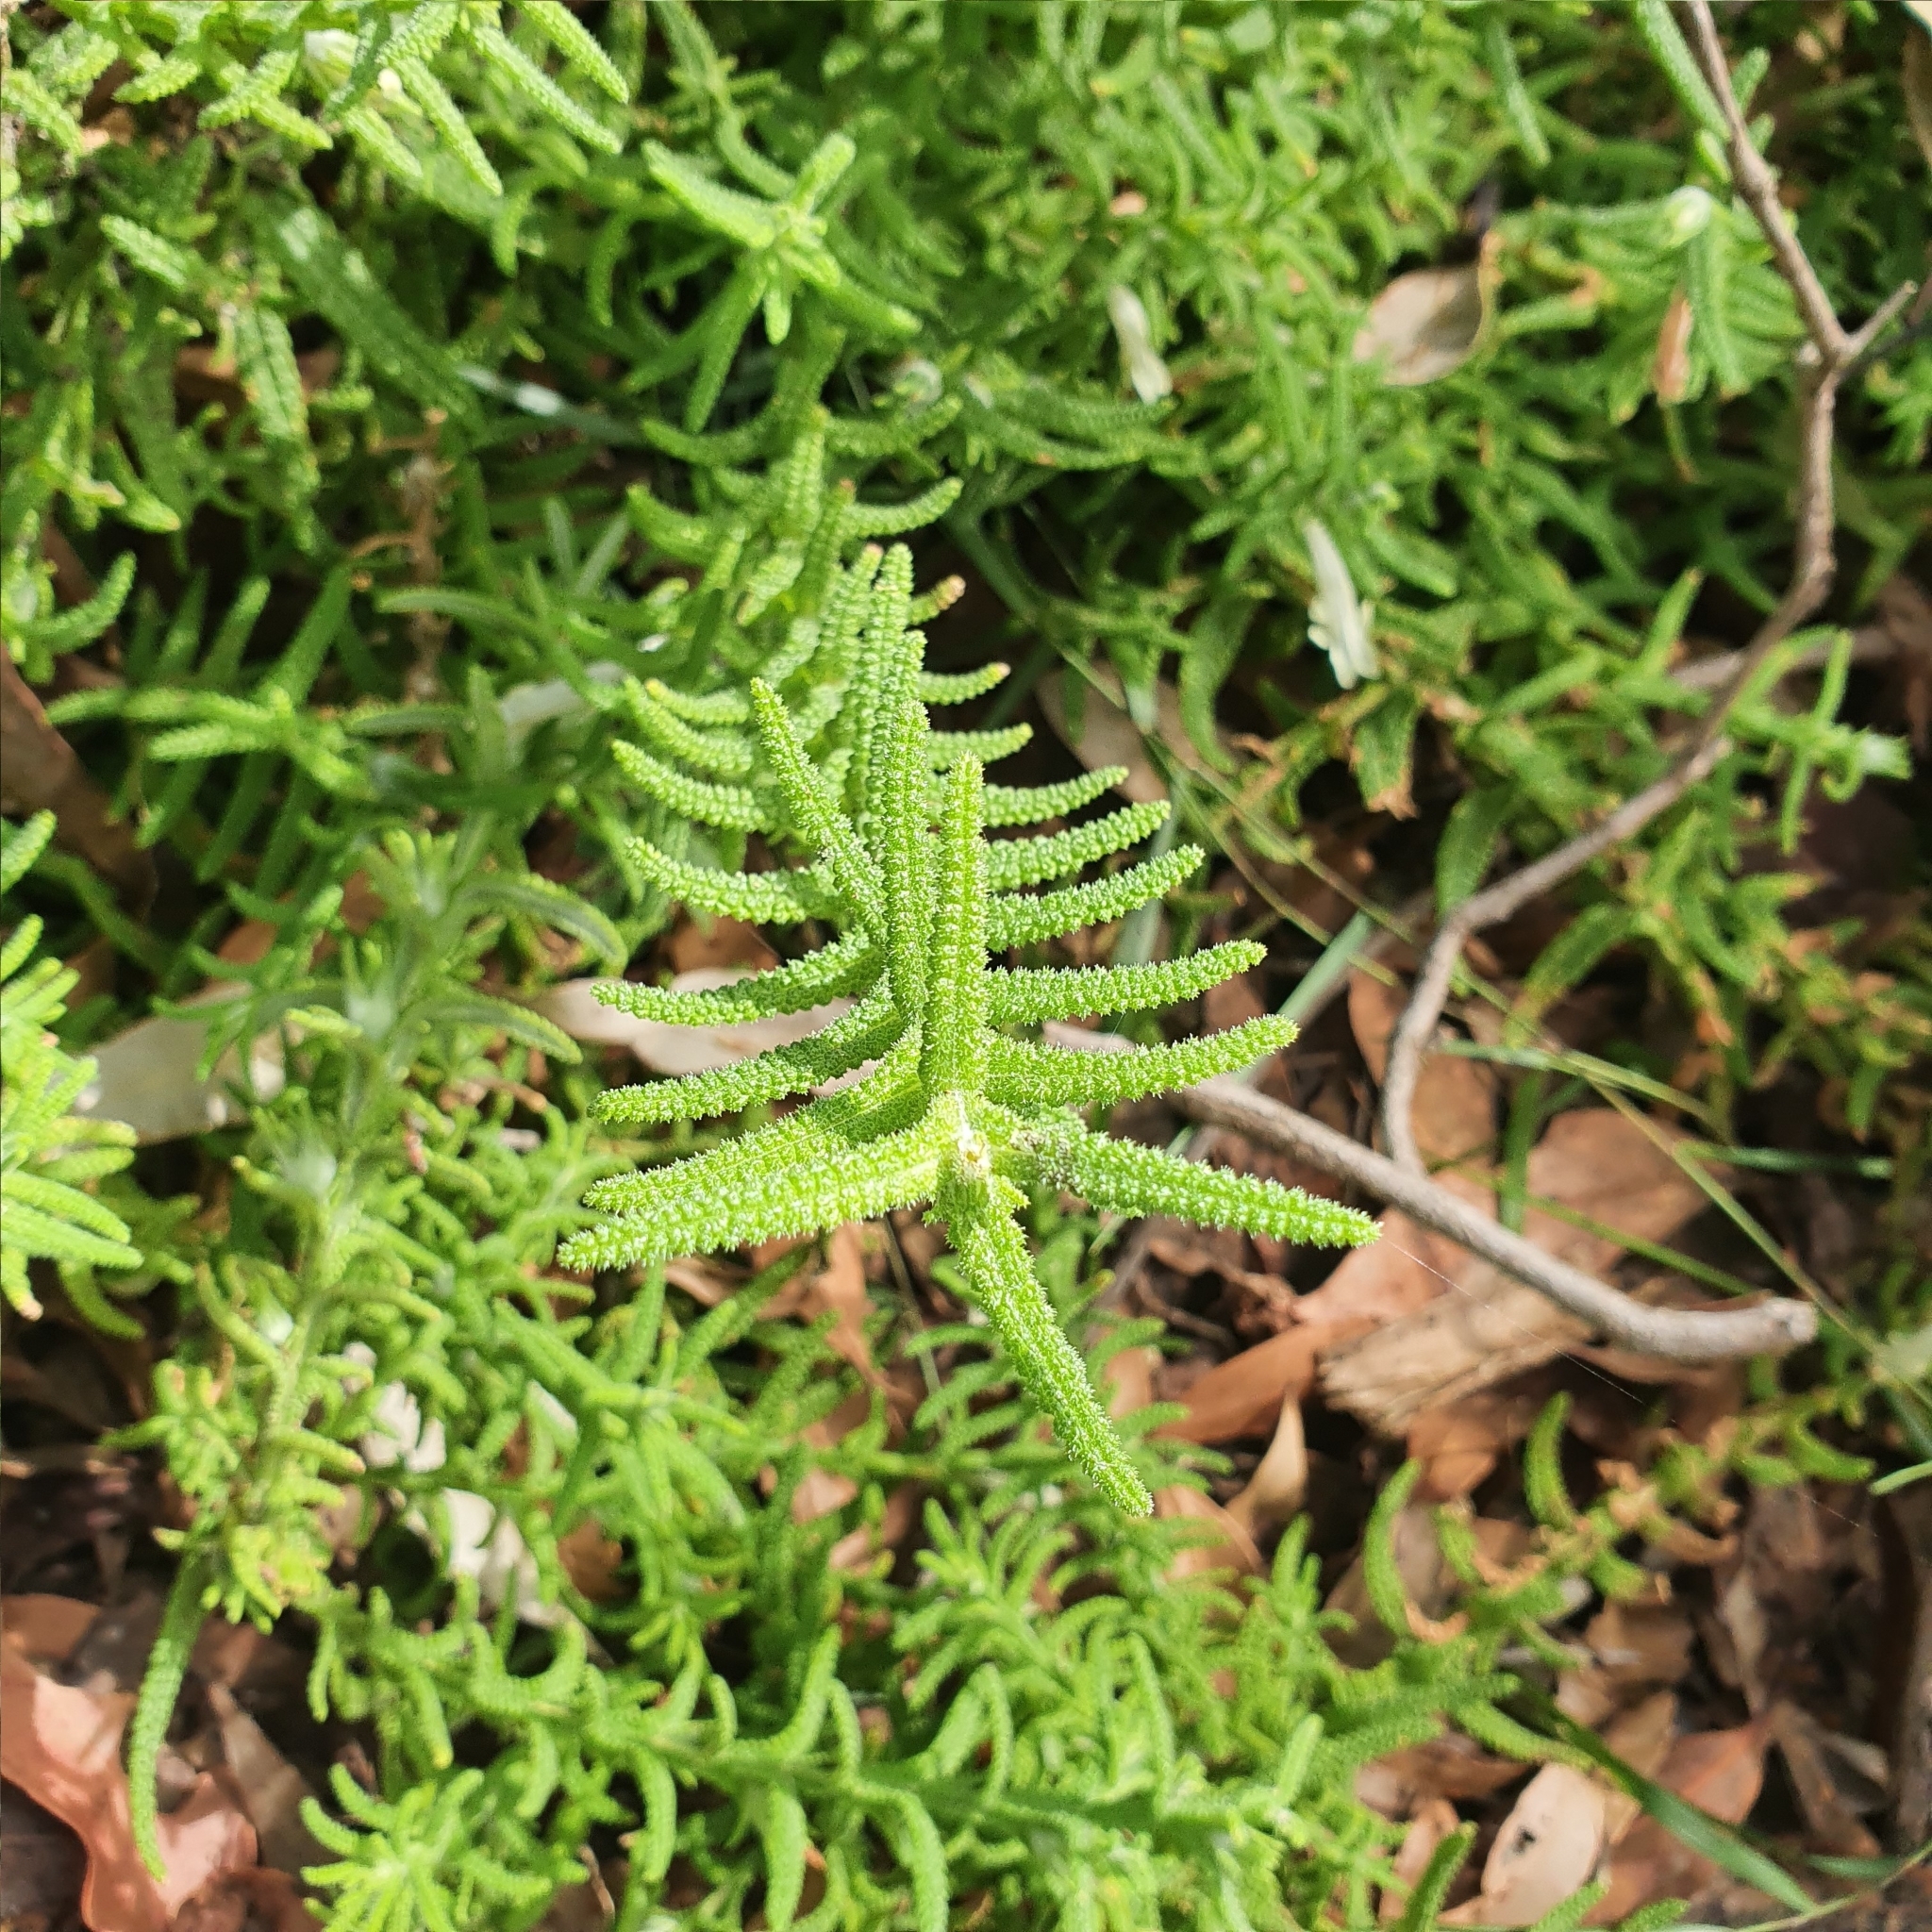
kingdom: Plantae
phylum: Tracheophyta
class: Magnoliopsida
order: Lamiales
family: Lamiaceae
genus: Chloanthes
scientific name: Chloanthes stoechadis
